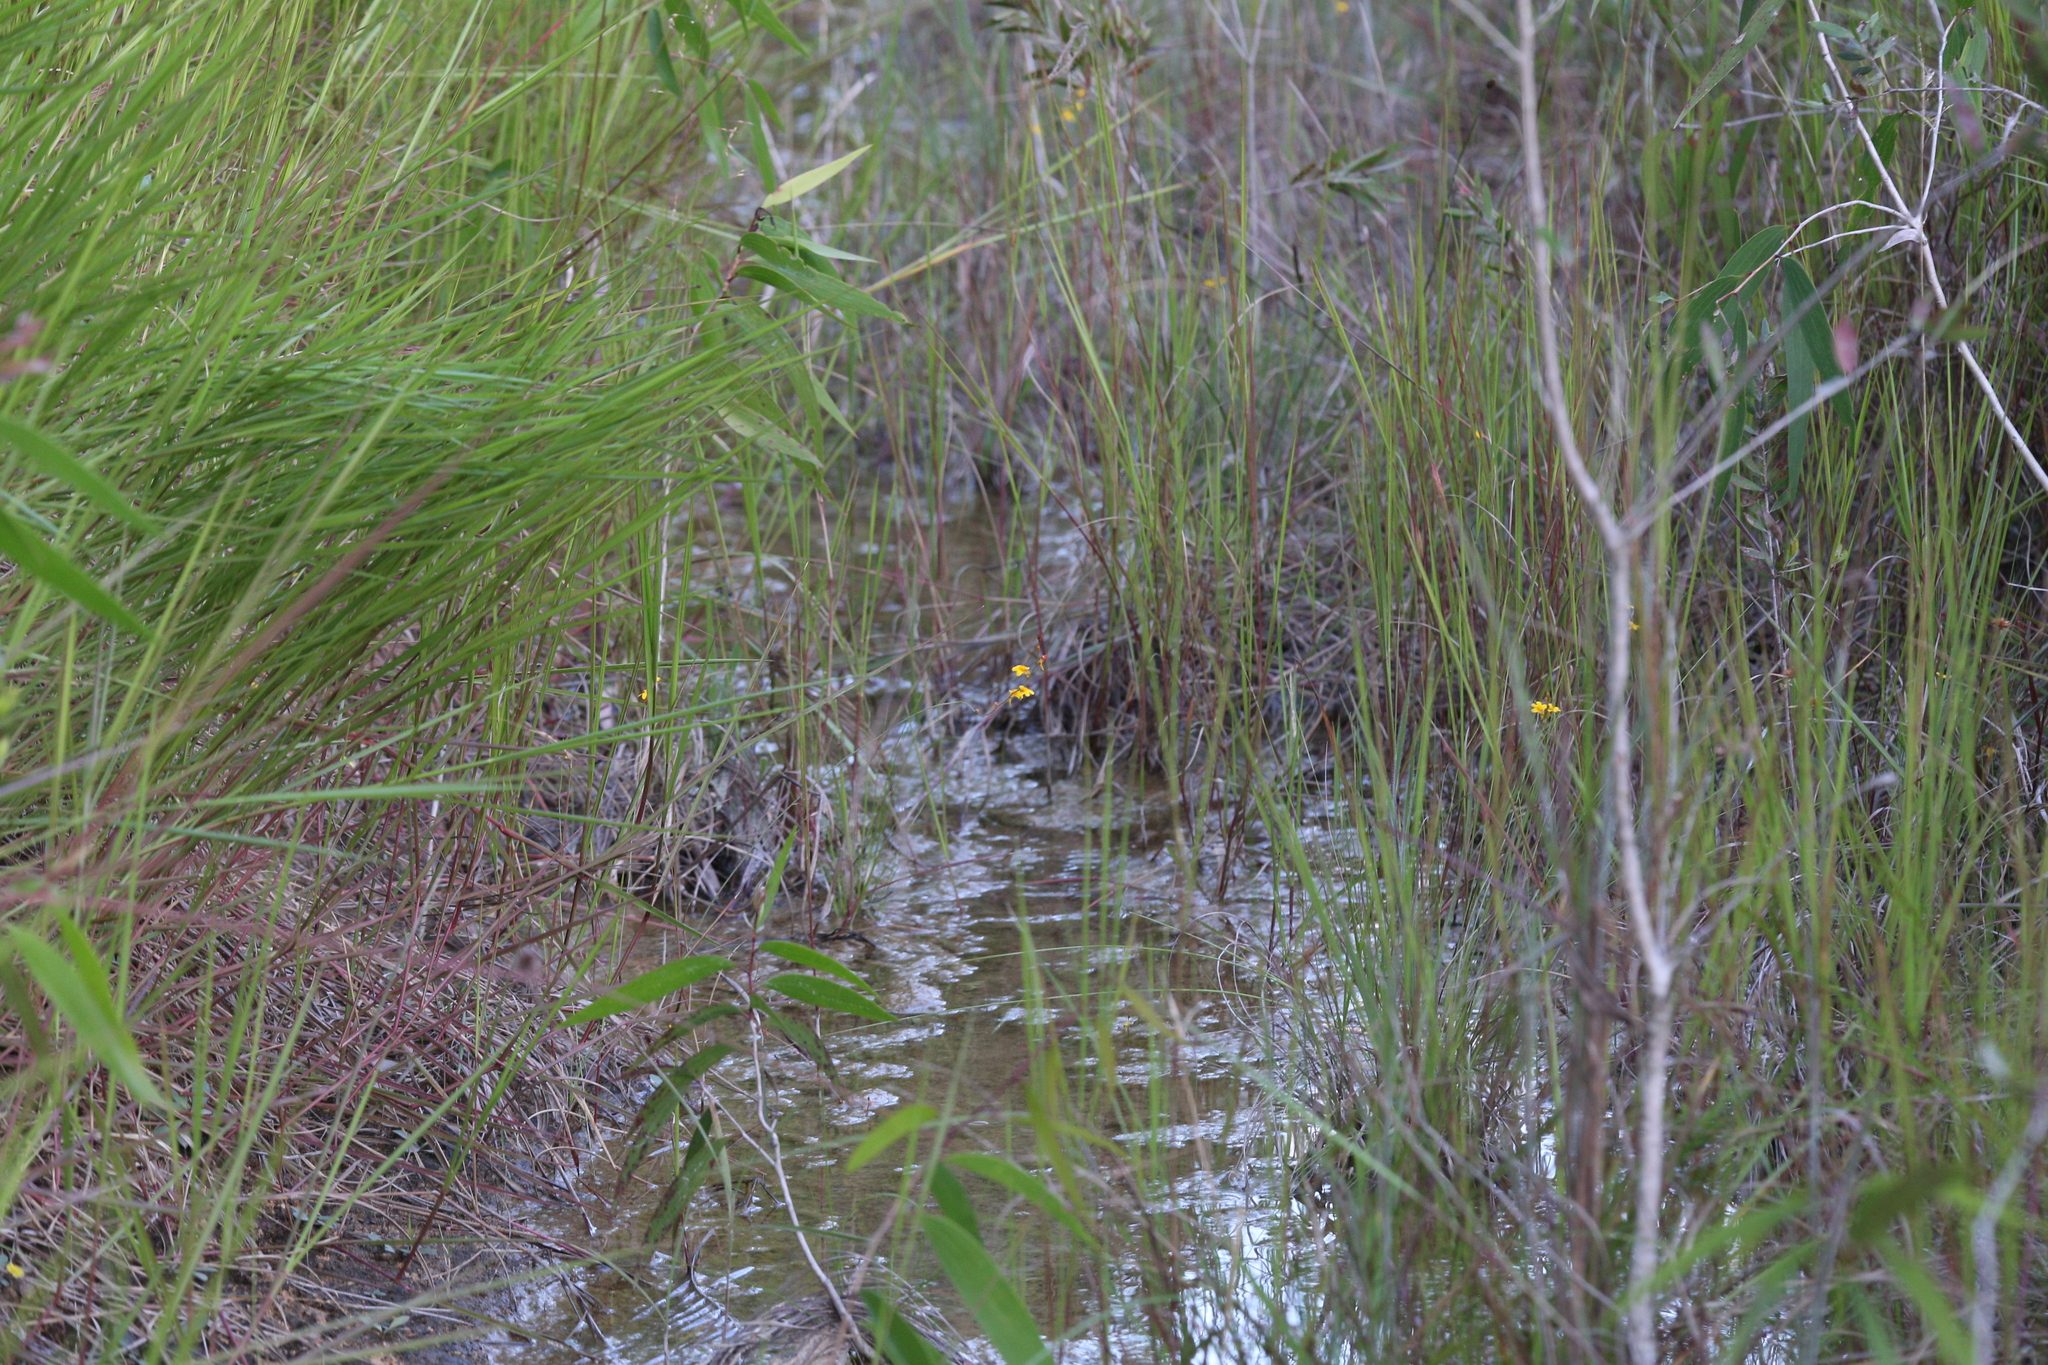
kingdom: Plantae
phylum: Tracheophyta
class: Magnoliopsida
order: Lamiales
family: Lentibulariaceae
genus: Utricularia
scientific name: Utricularia chrysantha
